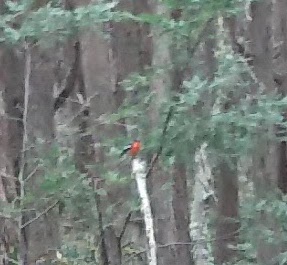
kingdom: Animalia
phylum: Chordata
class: Aves
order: Passeriformes
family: Petroicidae
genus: Petroica
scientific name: Petroica phoenicea
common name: Flame robin
